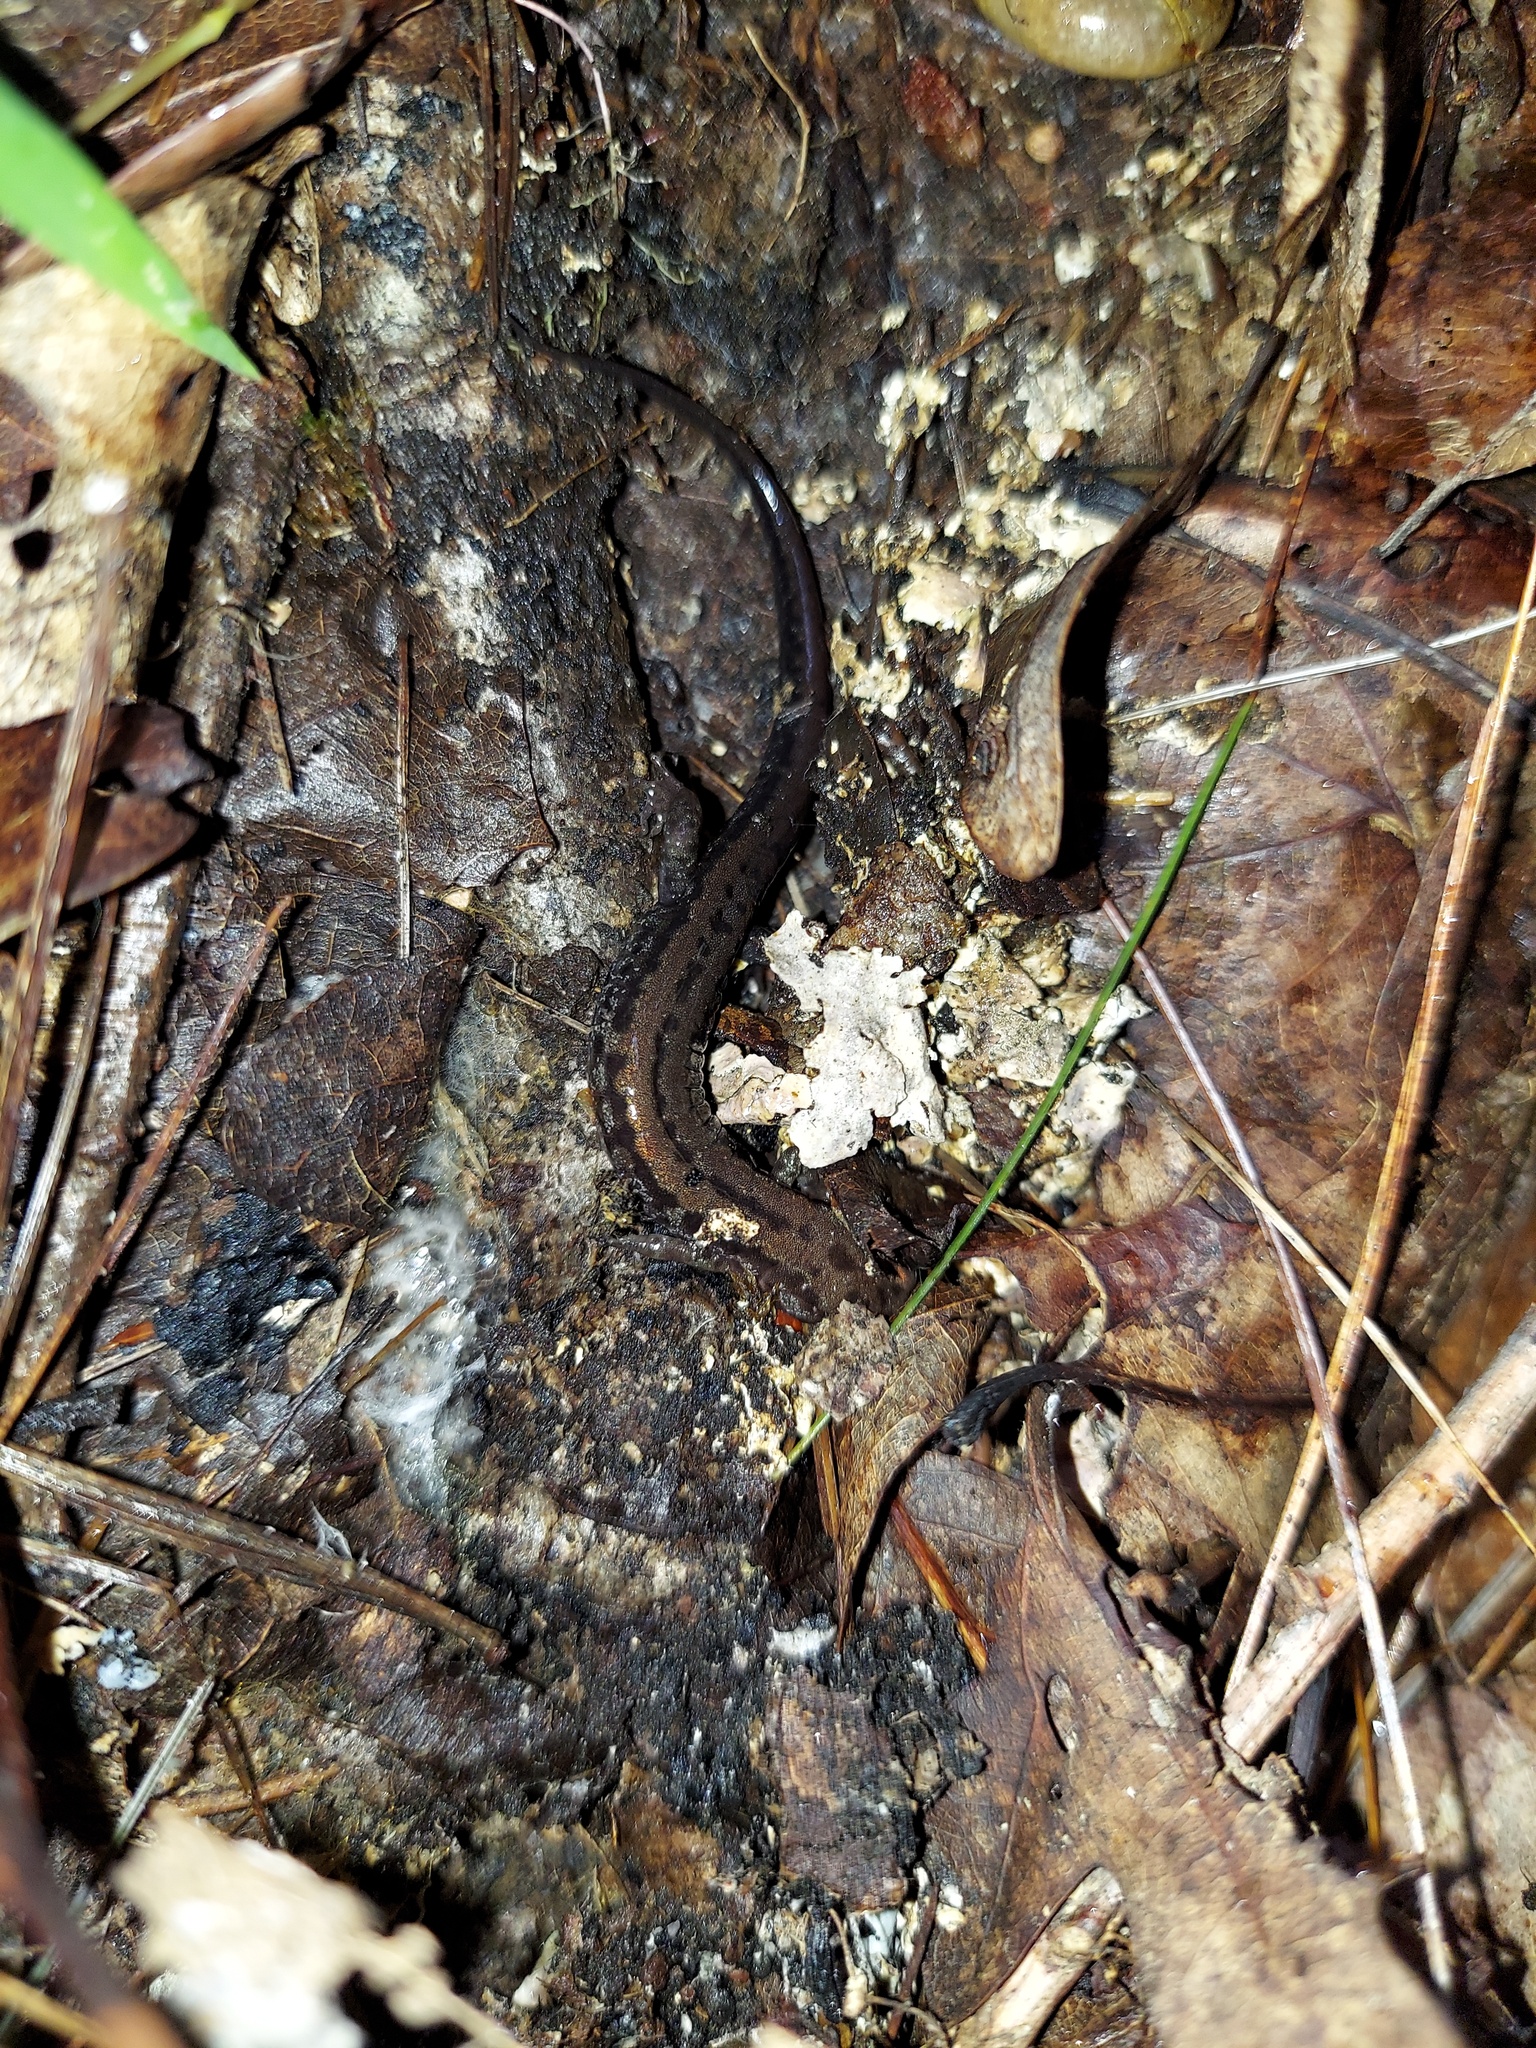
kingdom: Animalia
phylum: Chordata
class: Amphibia
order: Caudata
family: Plethodontidae
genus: Desmognathus
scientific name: Desmognathus orestes
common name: Blue ridge dusky salamander
